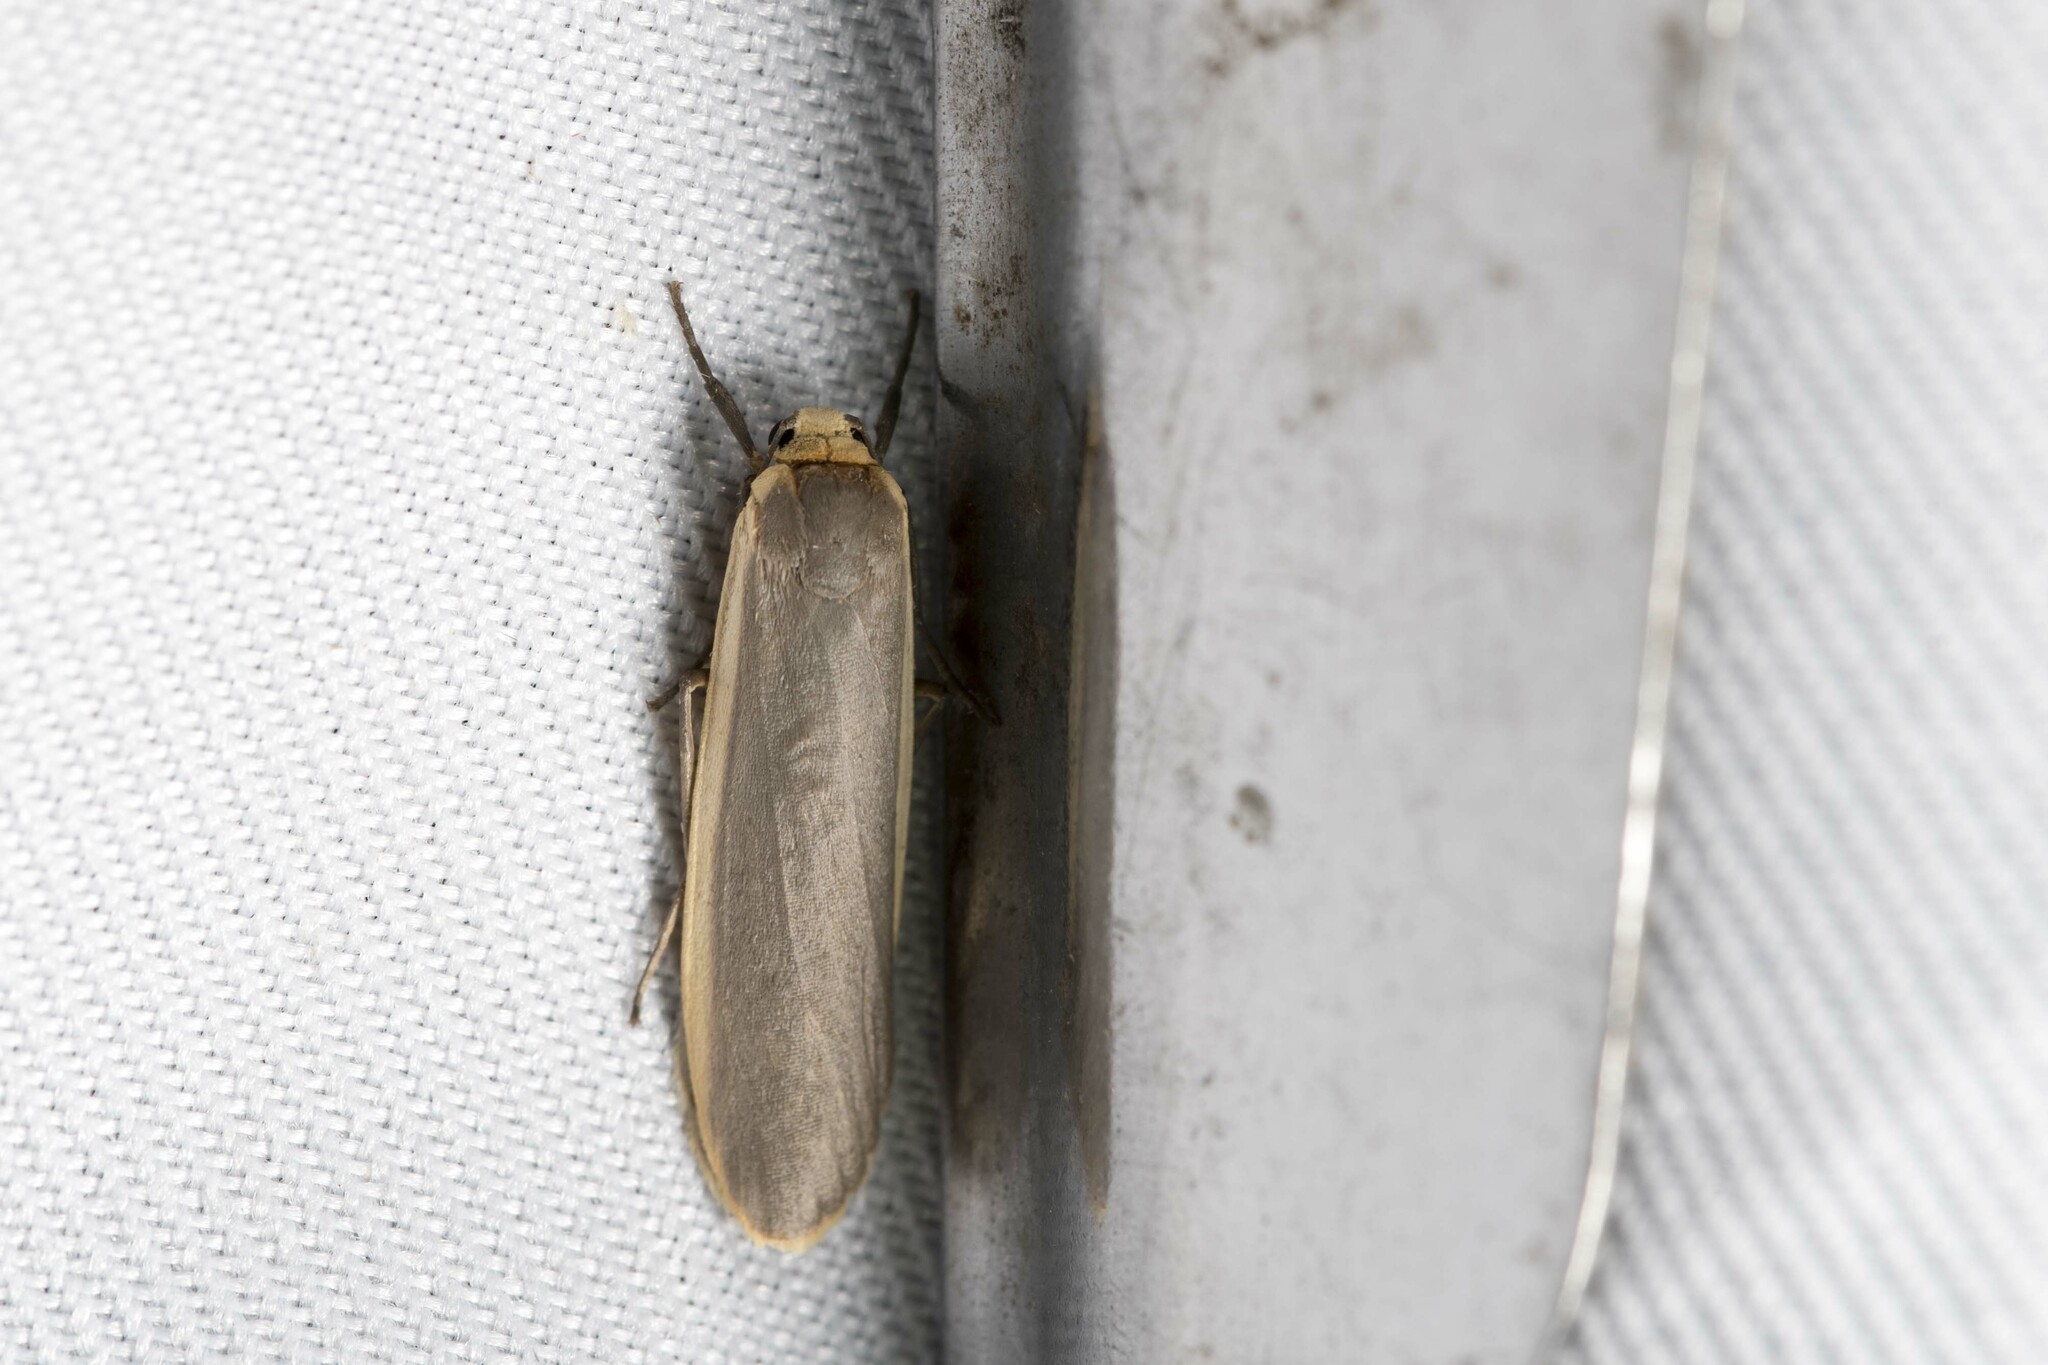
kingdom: Animalia
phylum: Arthropoda
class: Insecta
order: Lepidoptera
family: Erebidae
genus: Brunia
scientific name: Brunia antica
